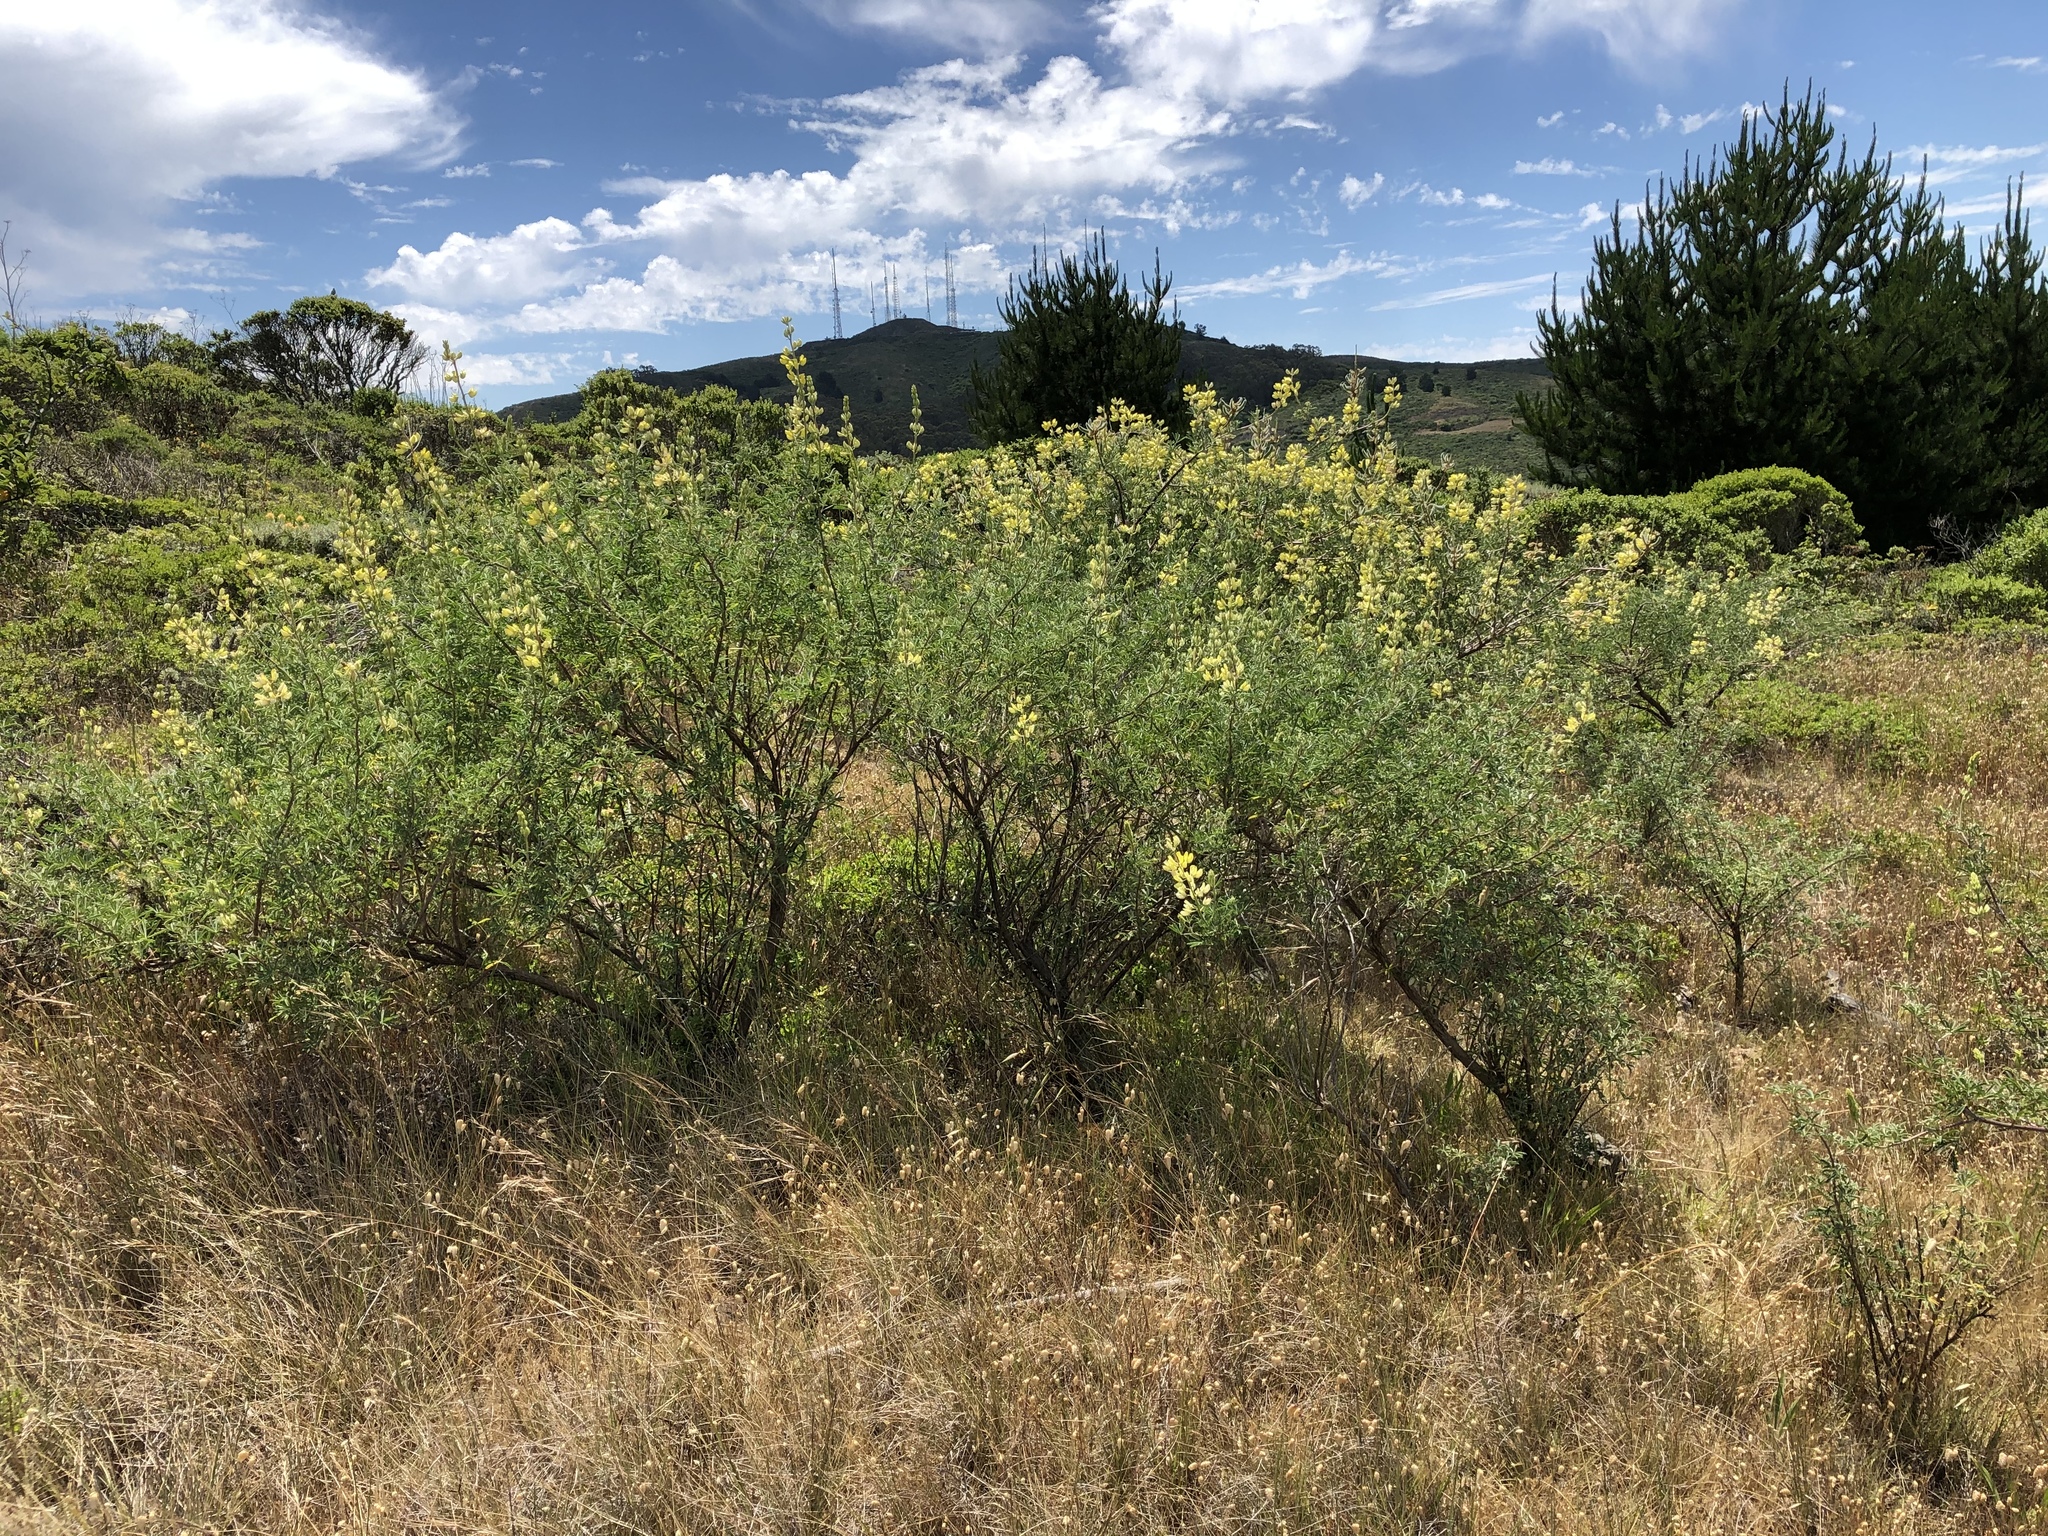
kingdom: Plantae
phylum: Tracheophyta
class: Magnoliopsida
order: Fabales
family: Fabaceae
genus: Lupinus
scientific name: Lupinus arboreus
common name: Yellow bush lupine
